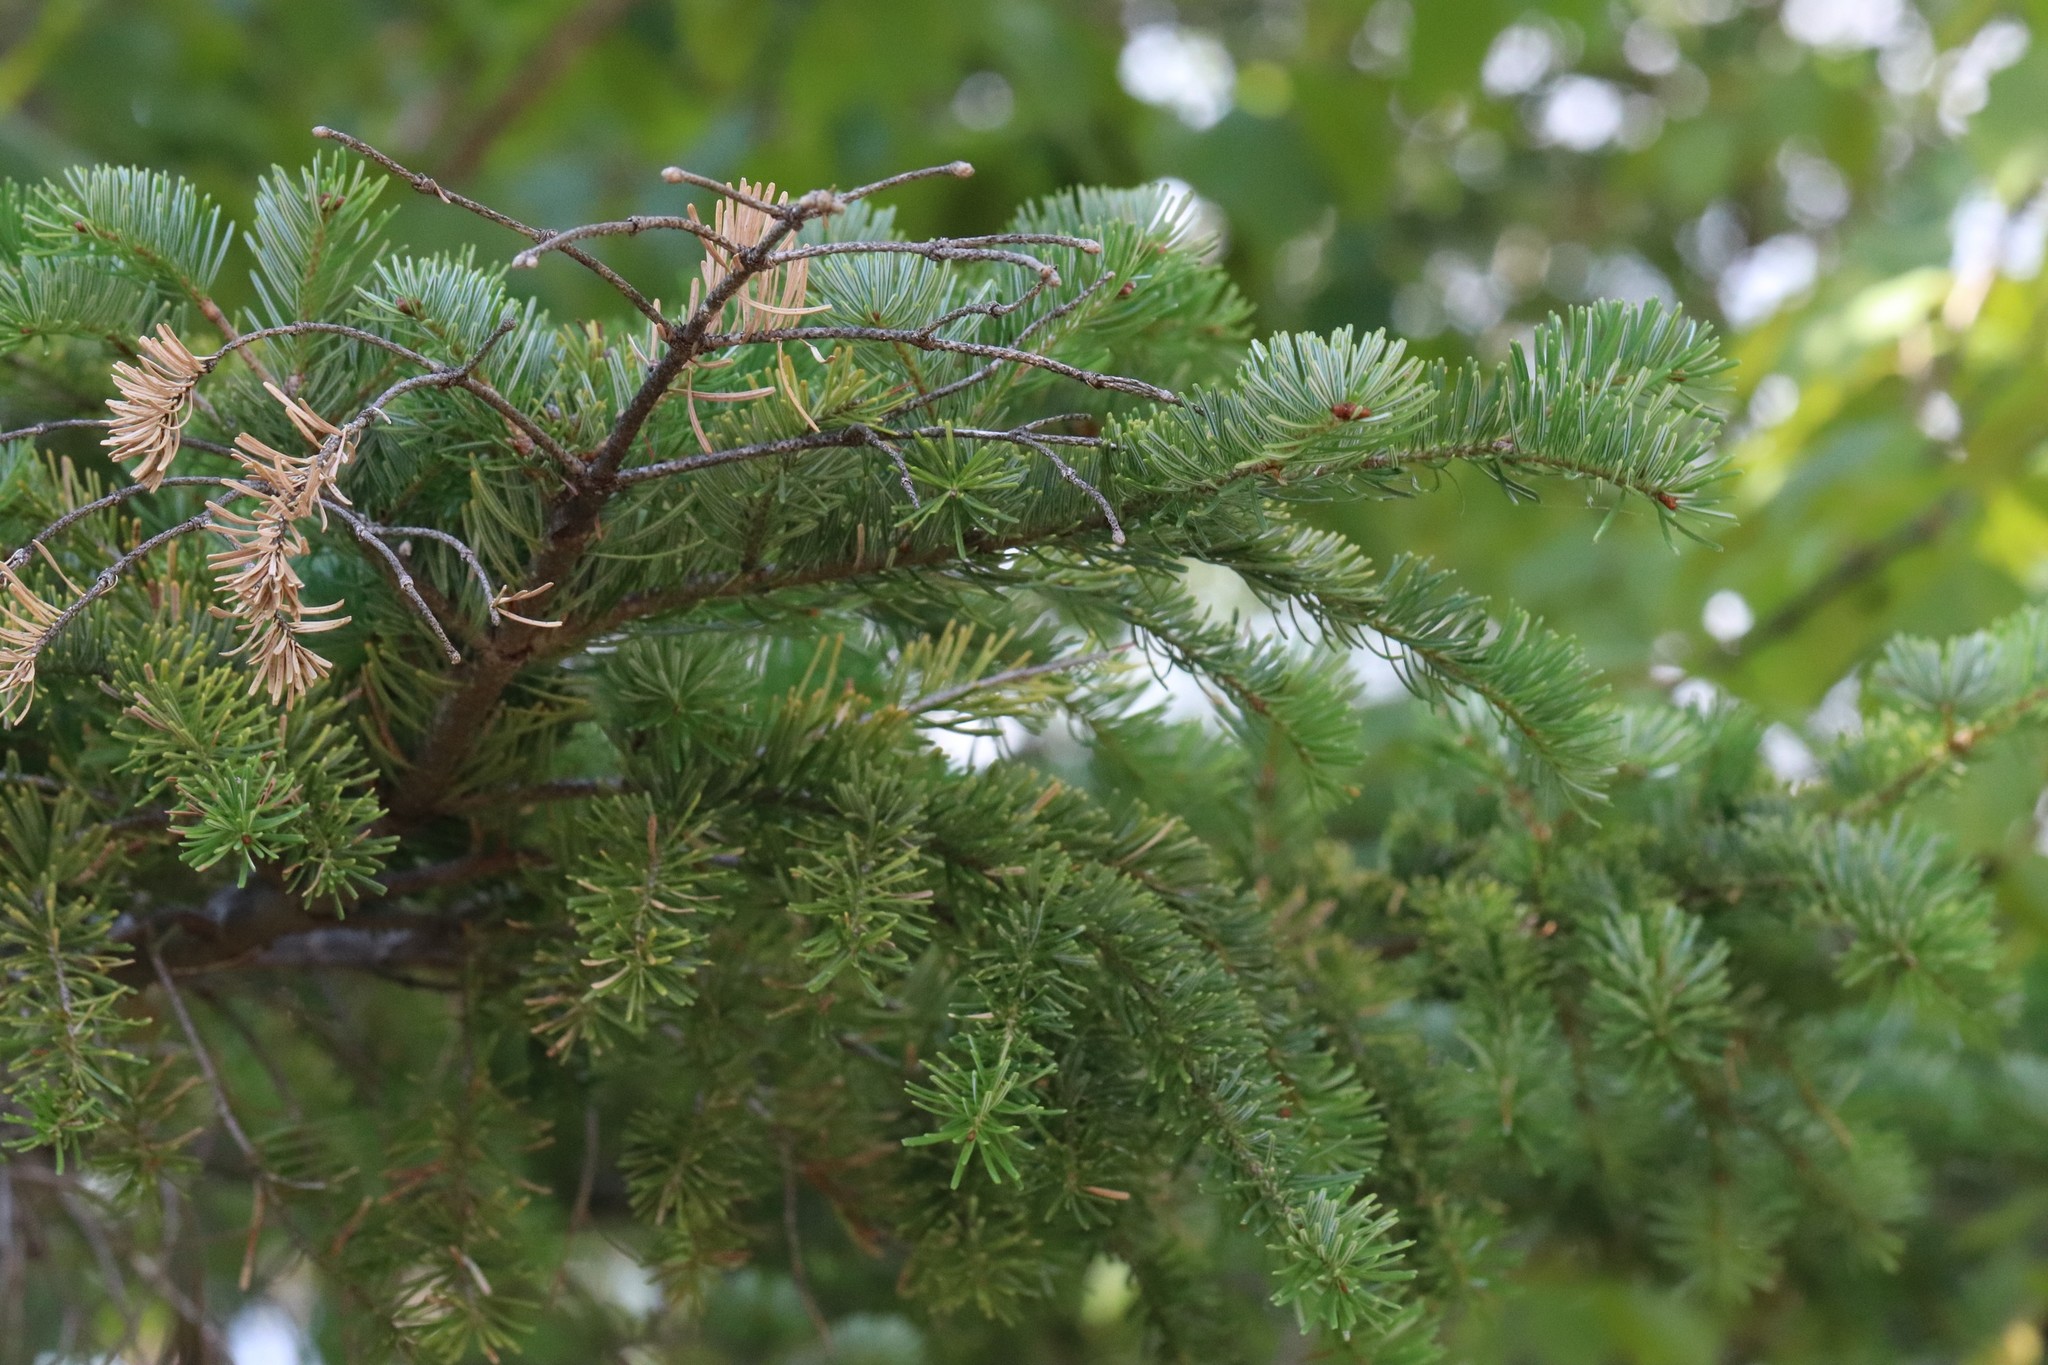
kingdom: Plantae
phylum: Tracheophyta
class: Pinopsida
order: Pinales
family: Pinaceae
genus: Abies
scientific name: Abies nephrolepis
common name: Hinggan fir
